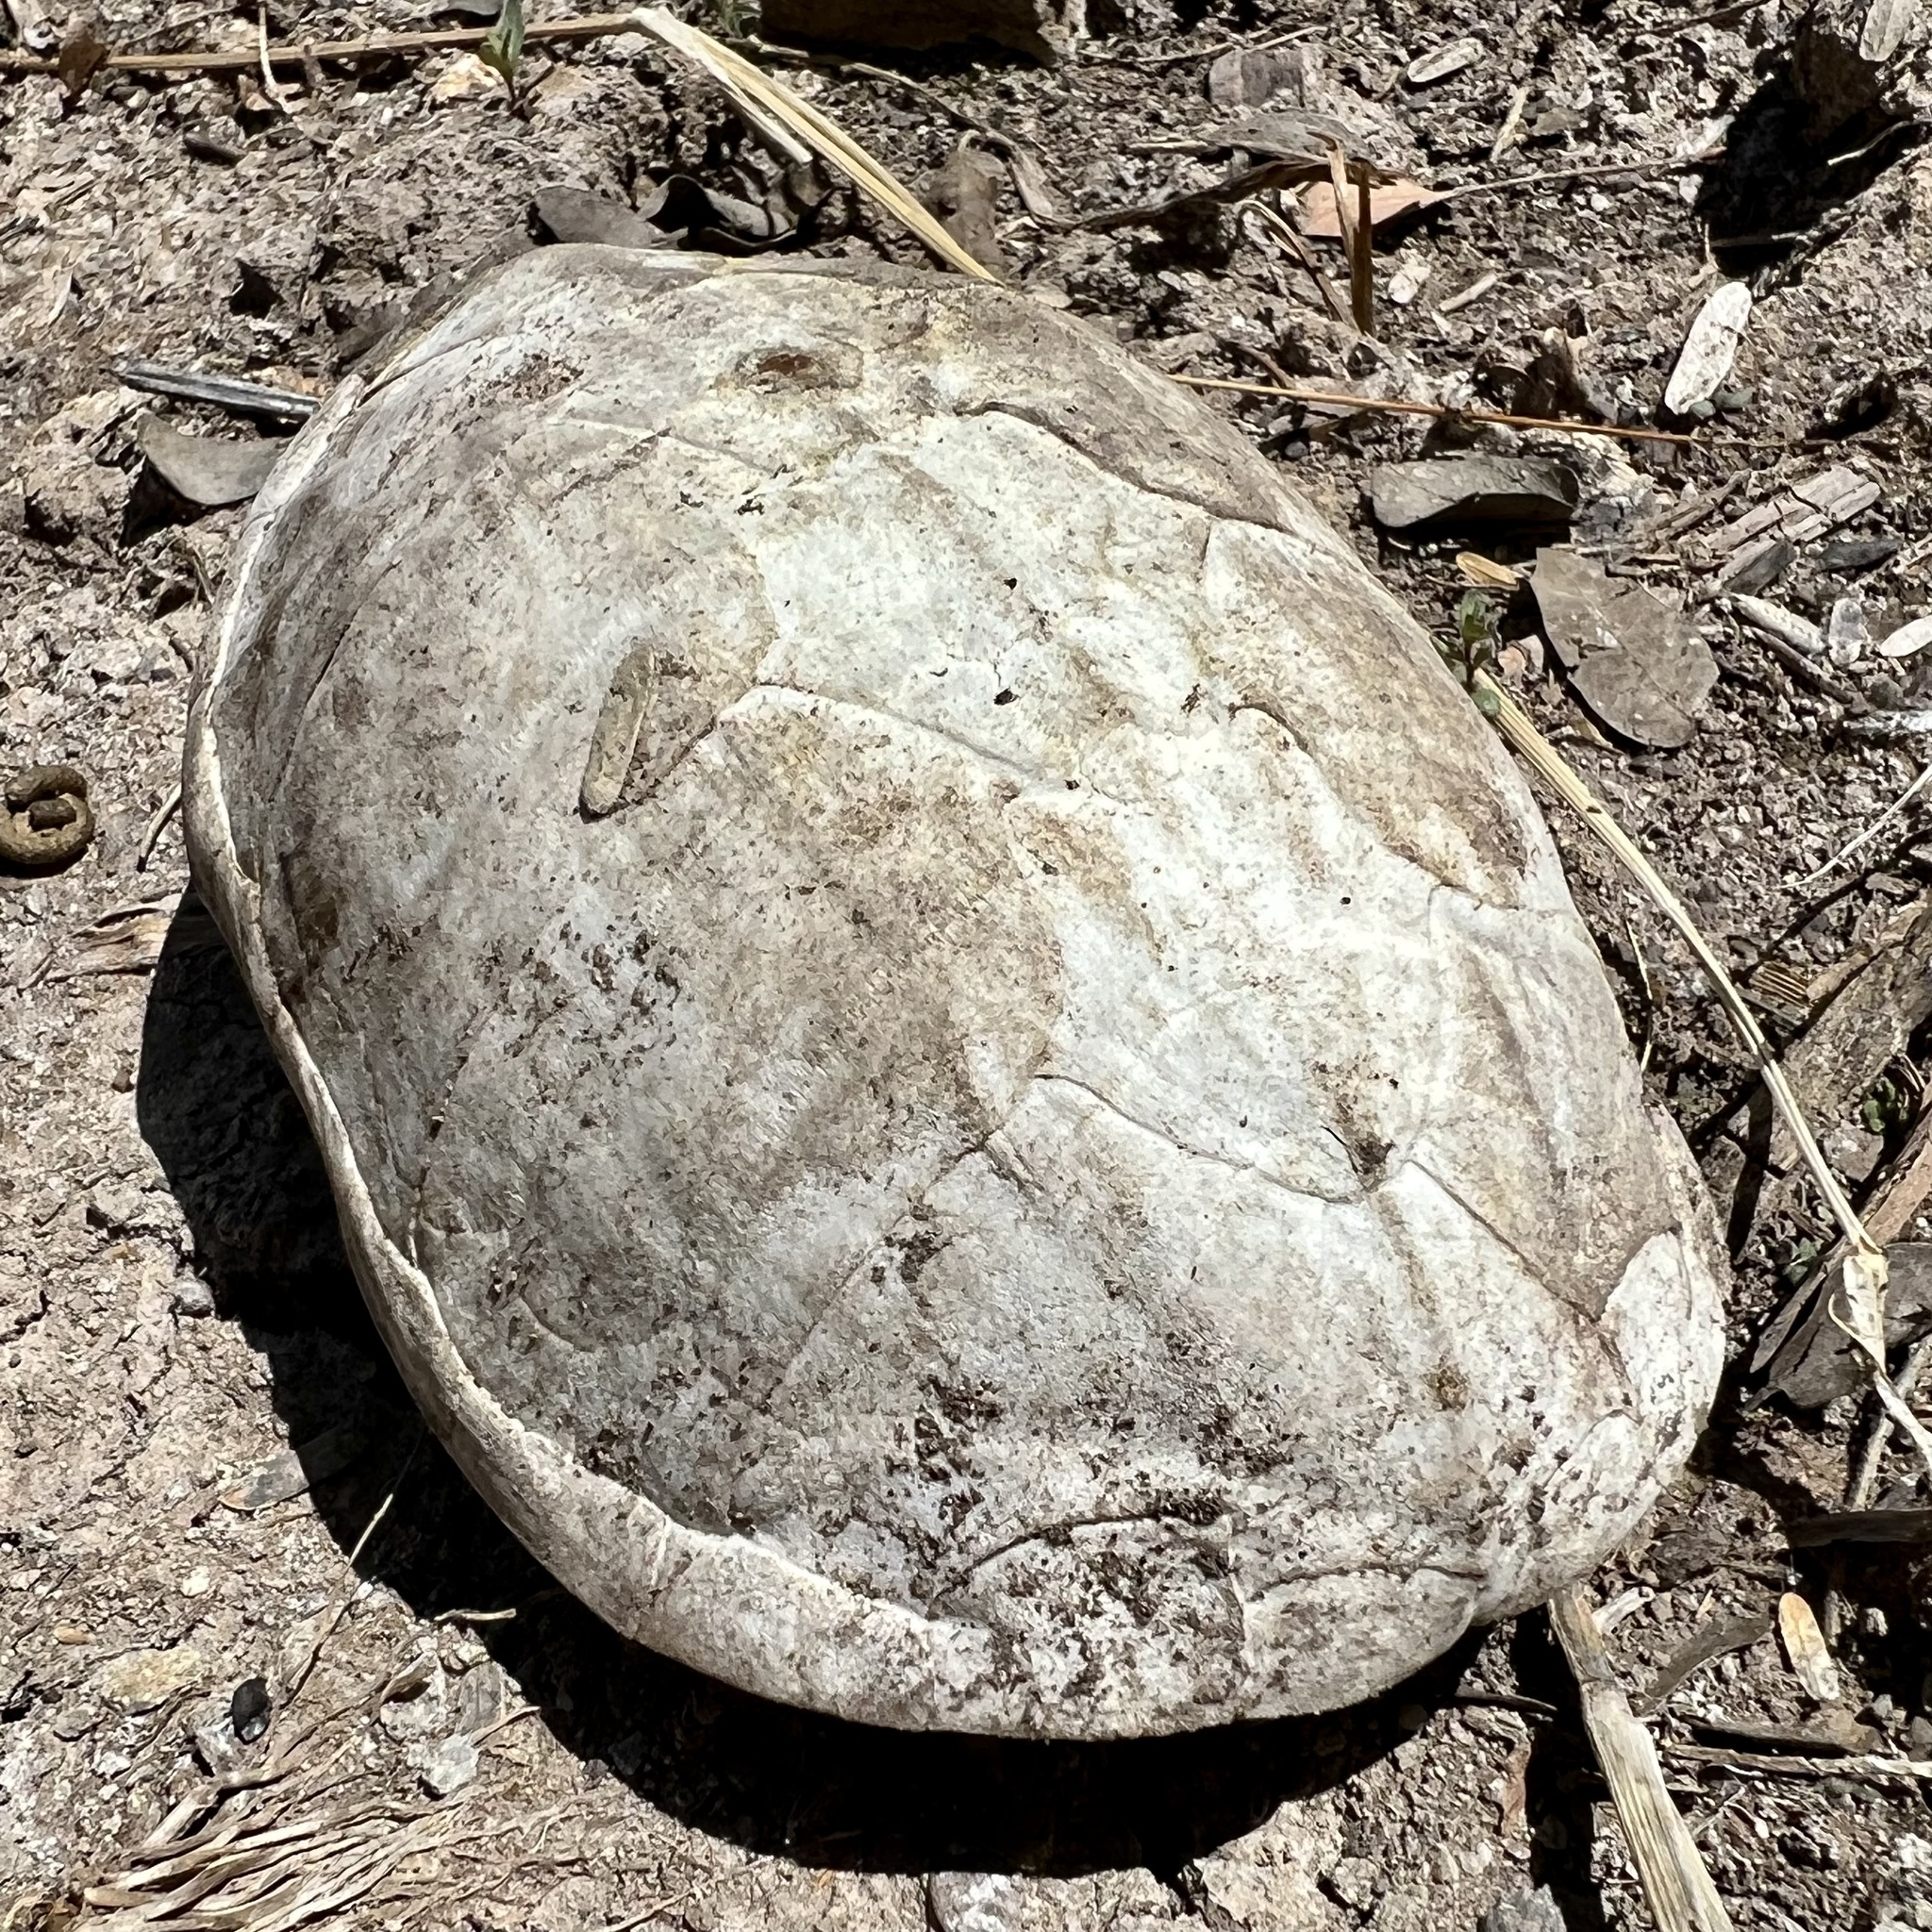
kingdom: Animalia
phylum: Chordata
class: Testudines
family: Kinosternidae
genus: Kinosternon
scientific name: Kinosternon sonoriense
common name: Sonora mud turtle
